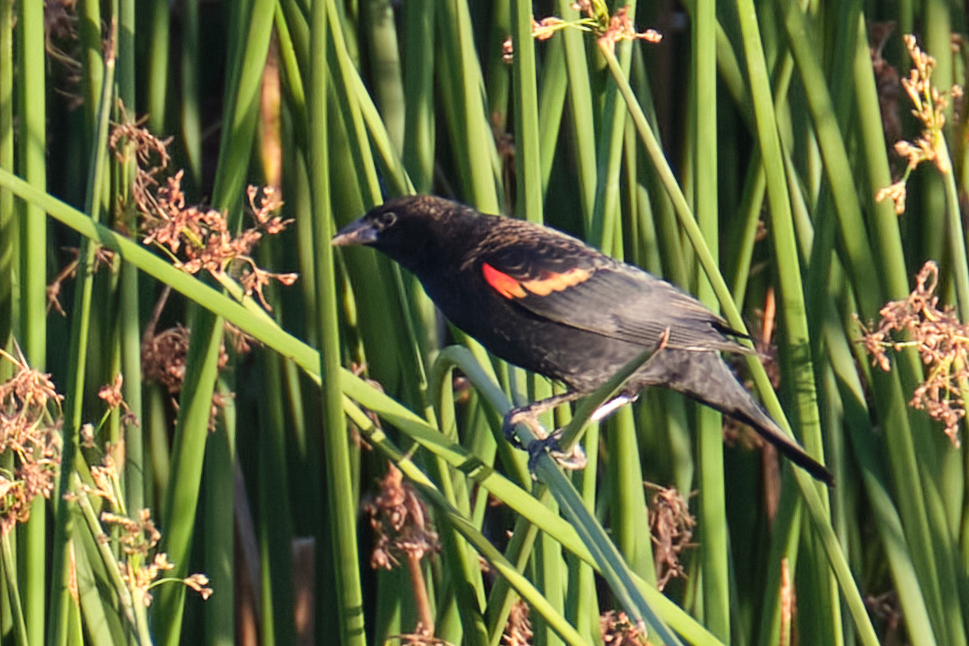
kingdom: Animalia
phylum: Chordata
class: Aves
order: Passeriformes
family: Icteridae
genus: Agelaius
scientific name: Agelaius phoeniceus
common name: Red-winged blackbird
